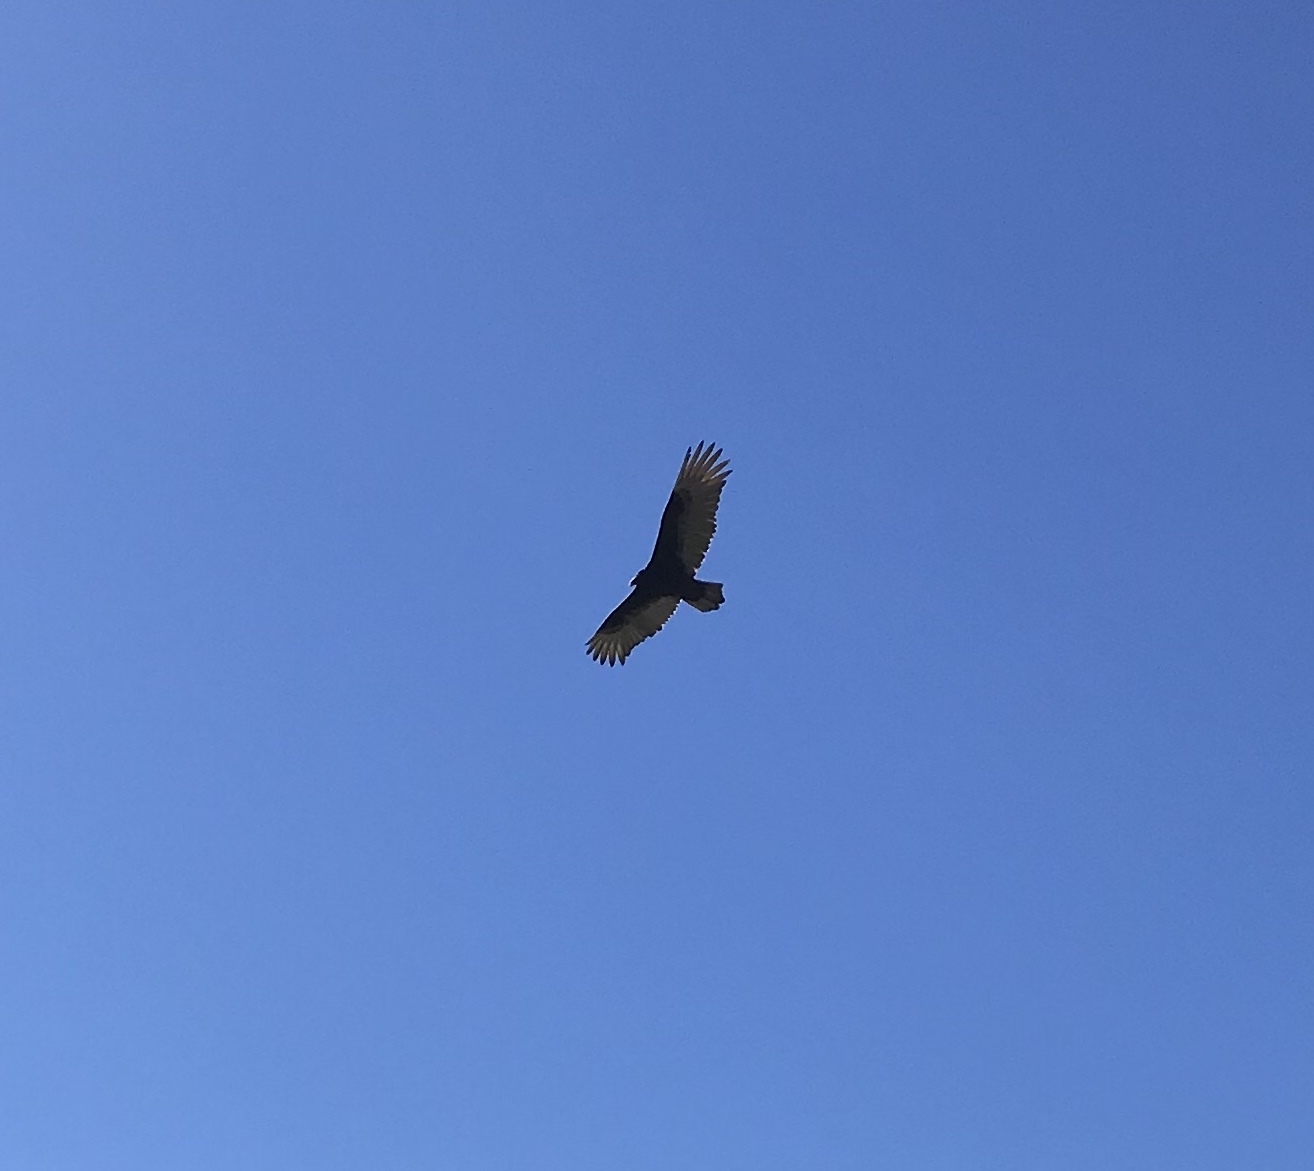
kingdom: Animalia
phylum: Chordata
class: Aves
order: Accipitriformes
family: Cathartidae
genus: Cathartes
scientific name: Cathartes aura
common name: Turkey vulture
